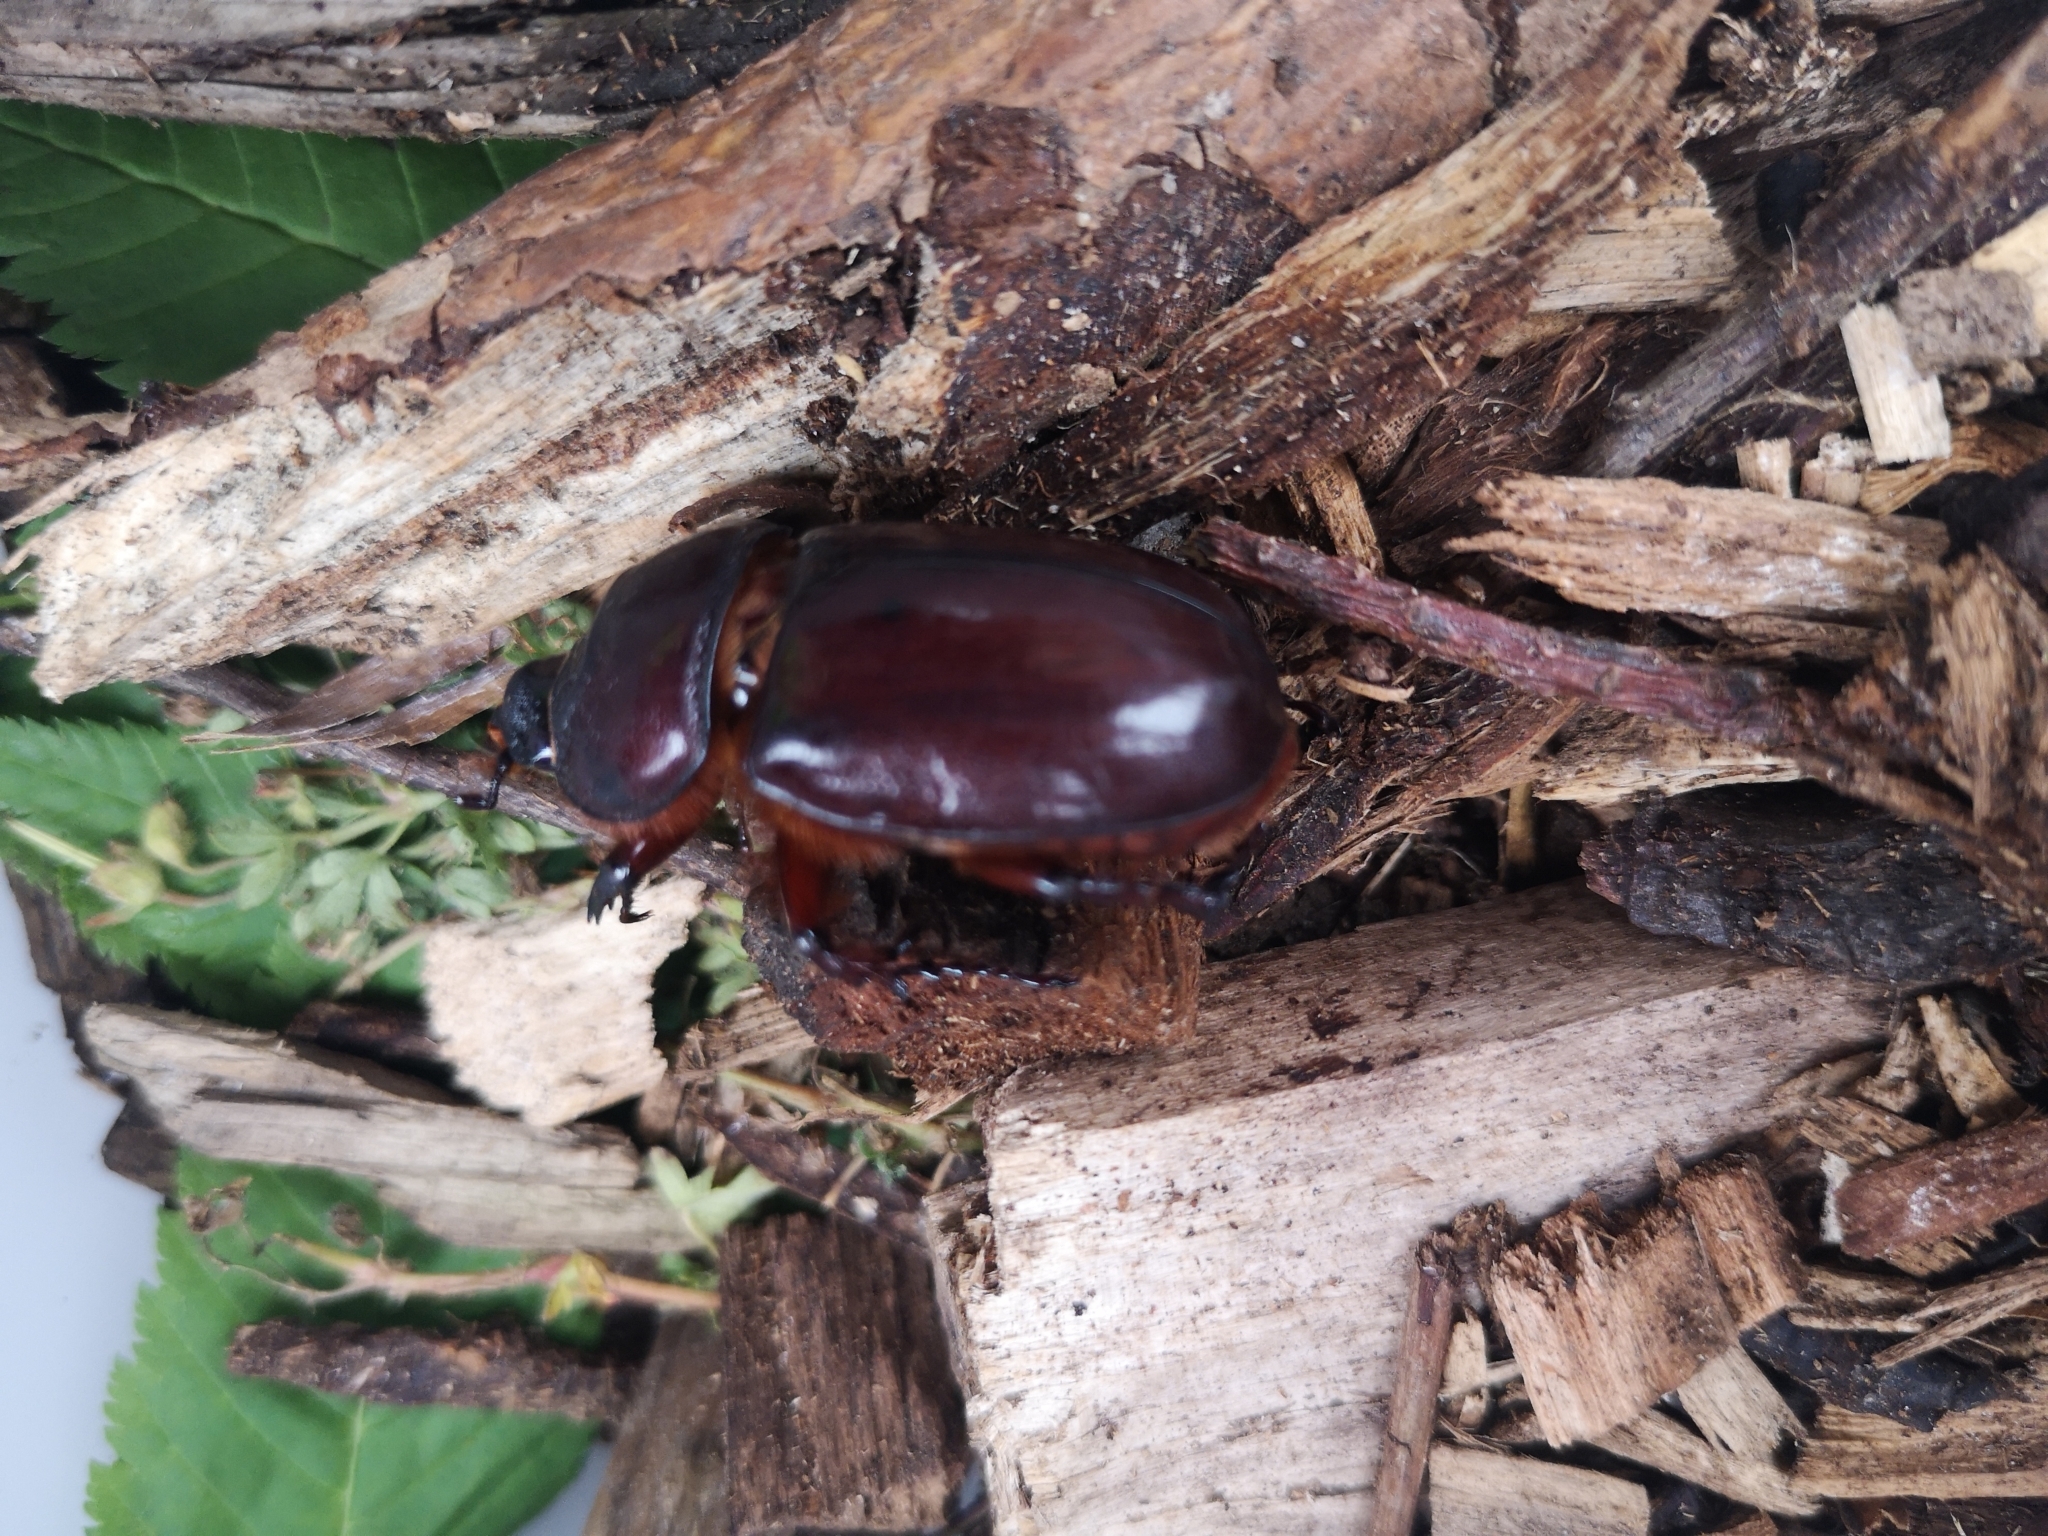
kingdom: Animalia
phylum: Arthropoda
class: Insecta
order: Coleoptera
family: Scarabaeidae
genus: Oryctes
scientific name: Oryctes nasicornis
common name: European rhinoceros beetle
